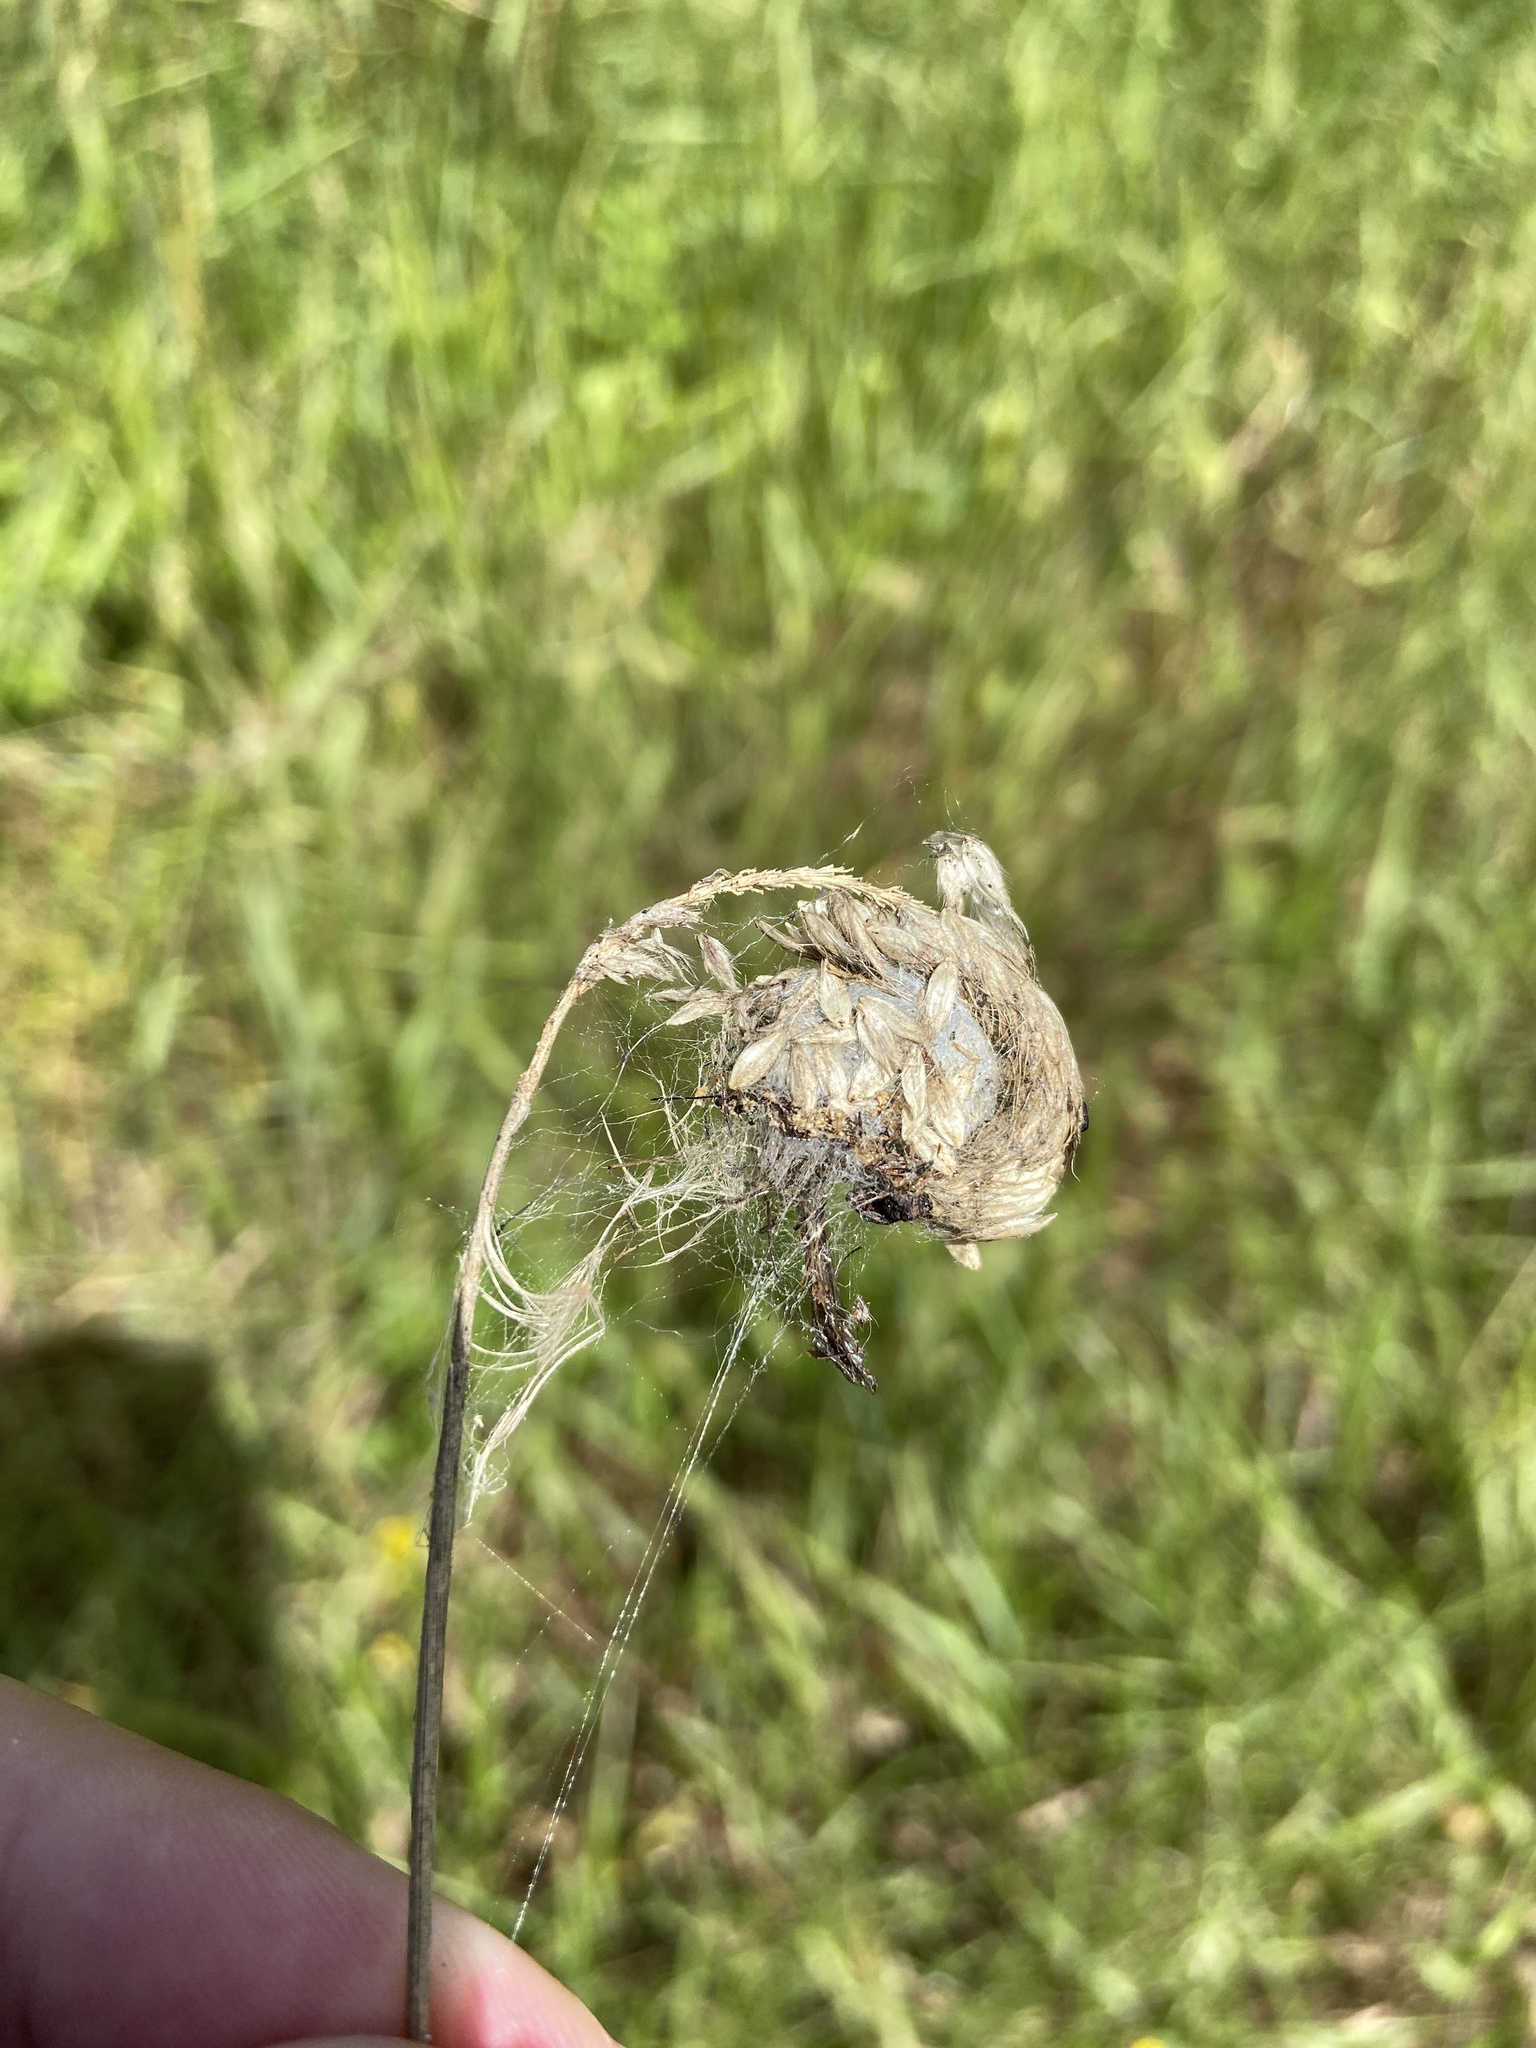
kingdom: Animalia
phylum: Arthropoda
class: Arachnida
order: Araneae
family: Araneidae
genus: Larinioides
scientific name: Larinioides cornutus
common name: Furrow orbweaver
